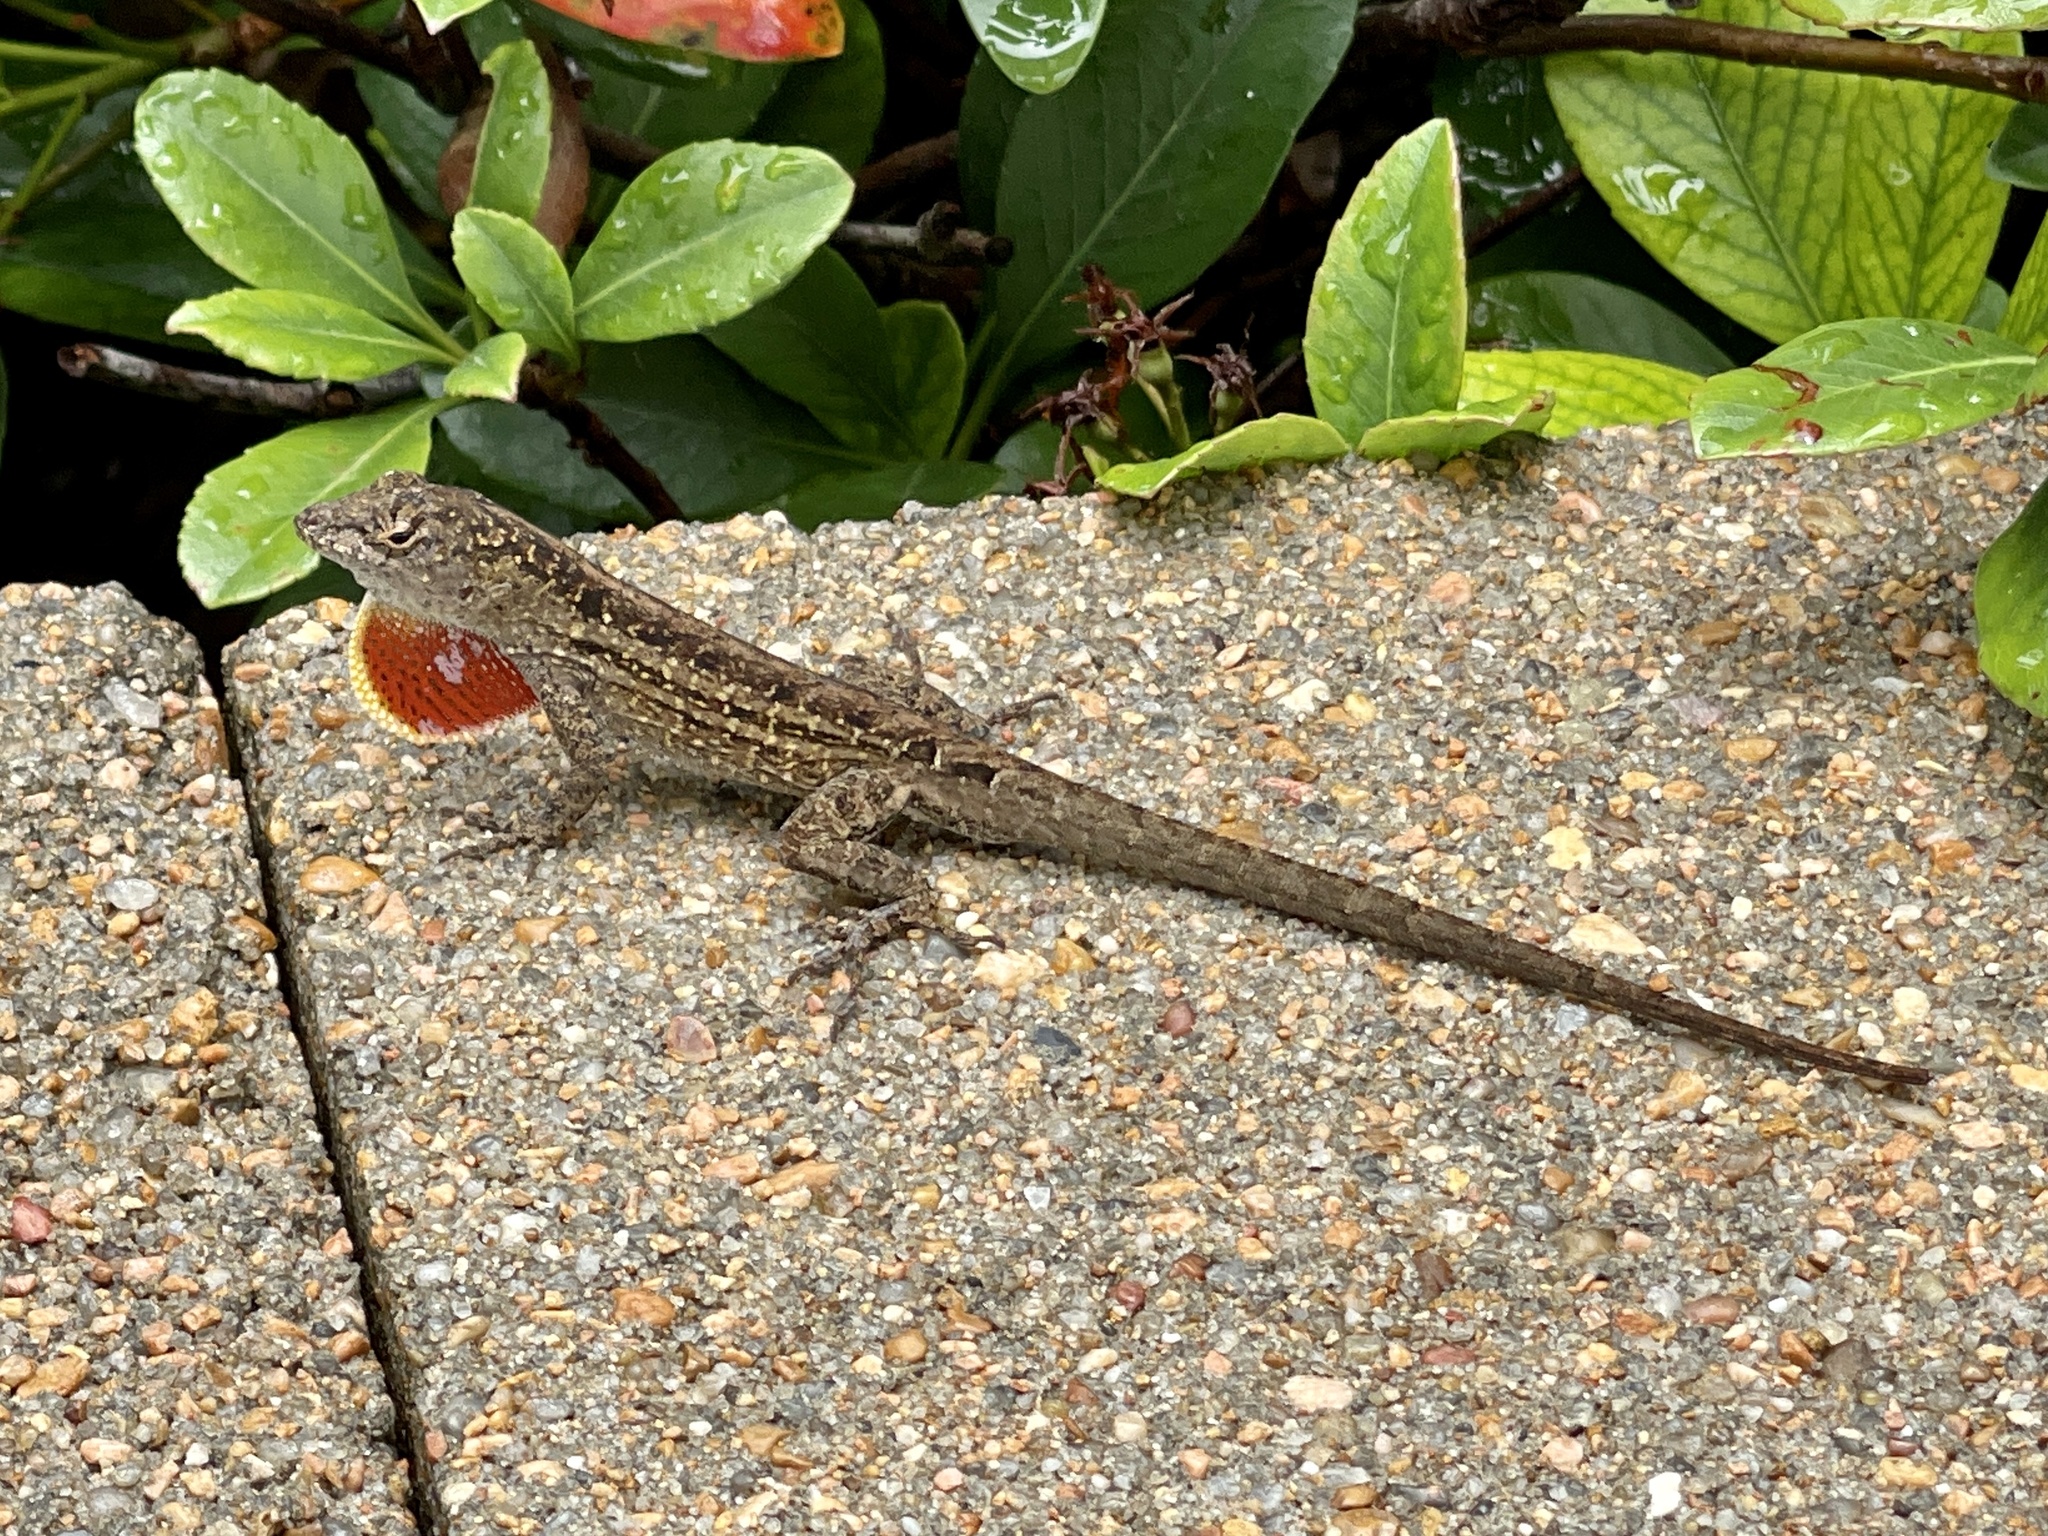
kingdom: Animalia
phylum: Chordata
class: Squamata
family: Dactyloidae
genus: Anolis
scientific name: Anolis sagrei
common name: Brown anole
